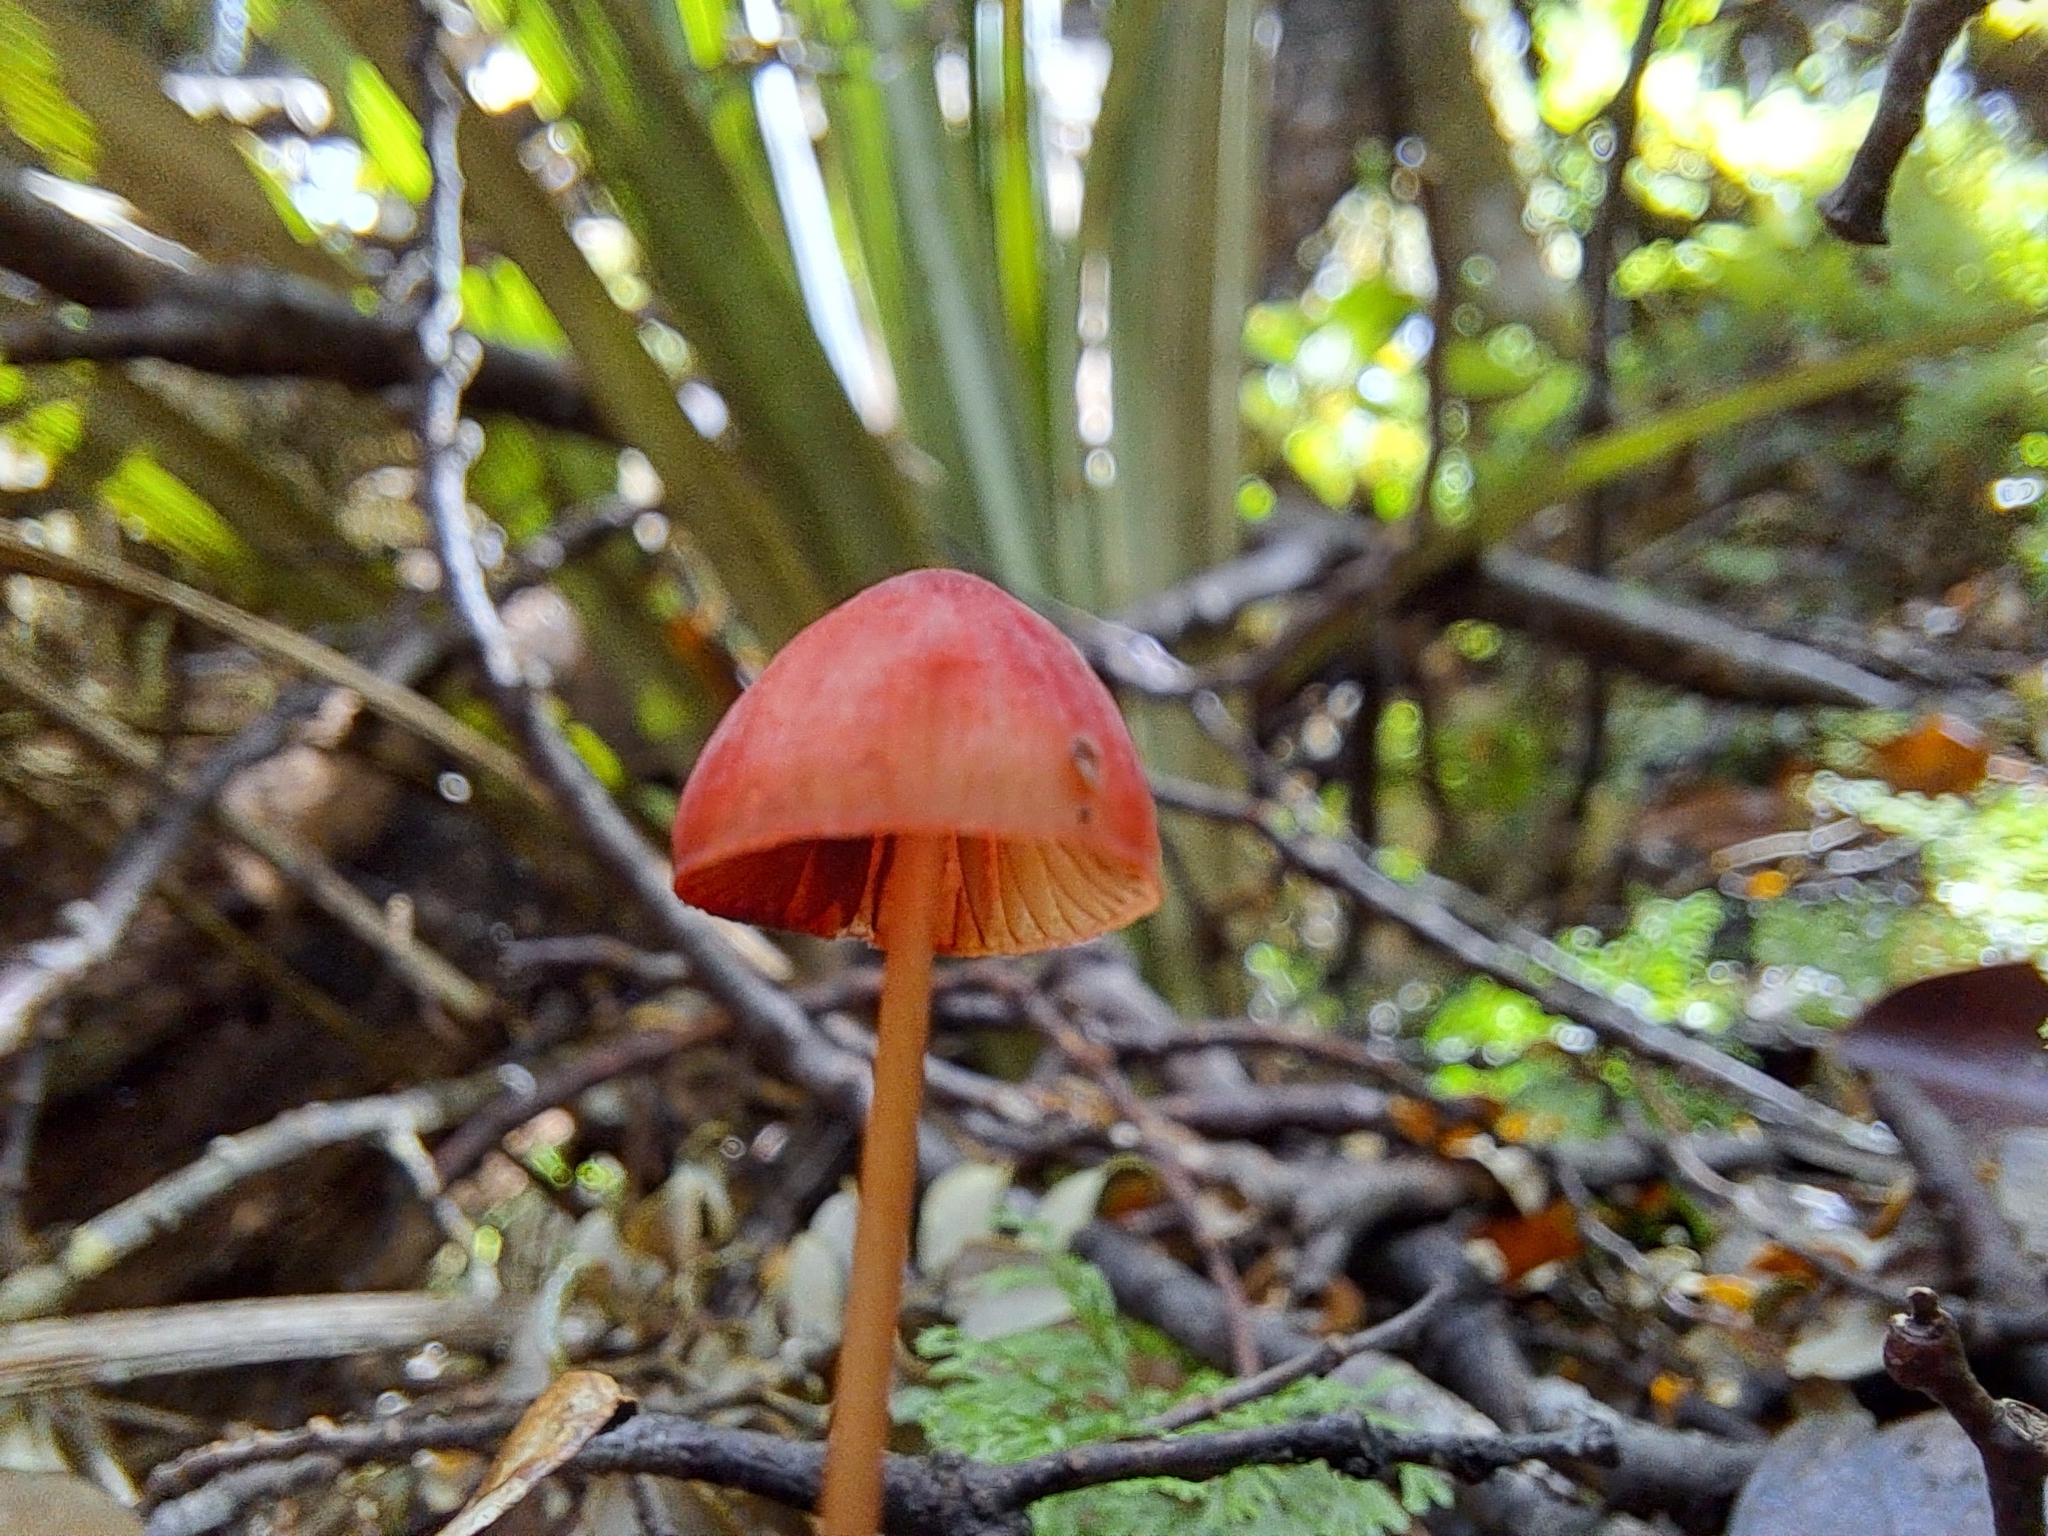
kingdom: Fungi
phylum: Basidiomycota
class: Agaricomycetes
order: Agaricales
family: Mycenaceae
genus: Mycena
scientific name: Mycena ura
